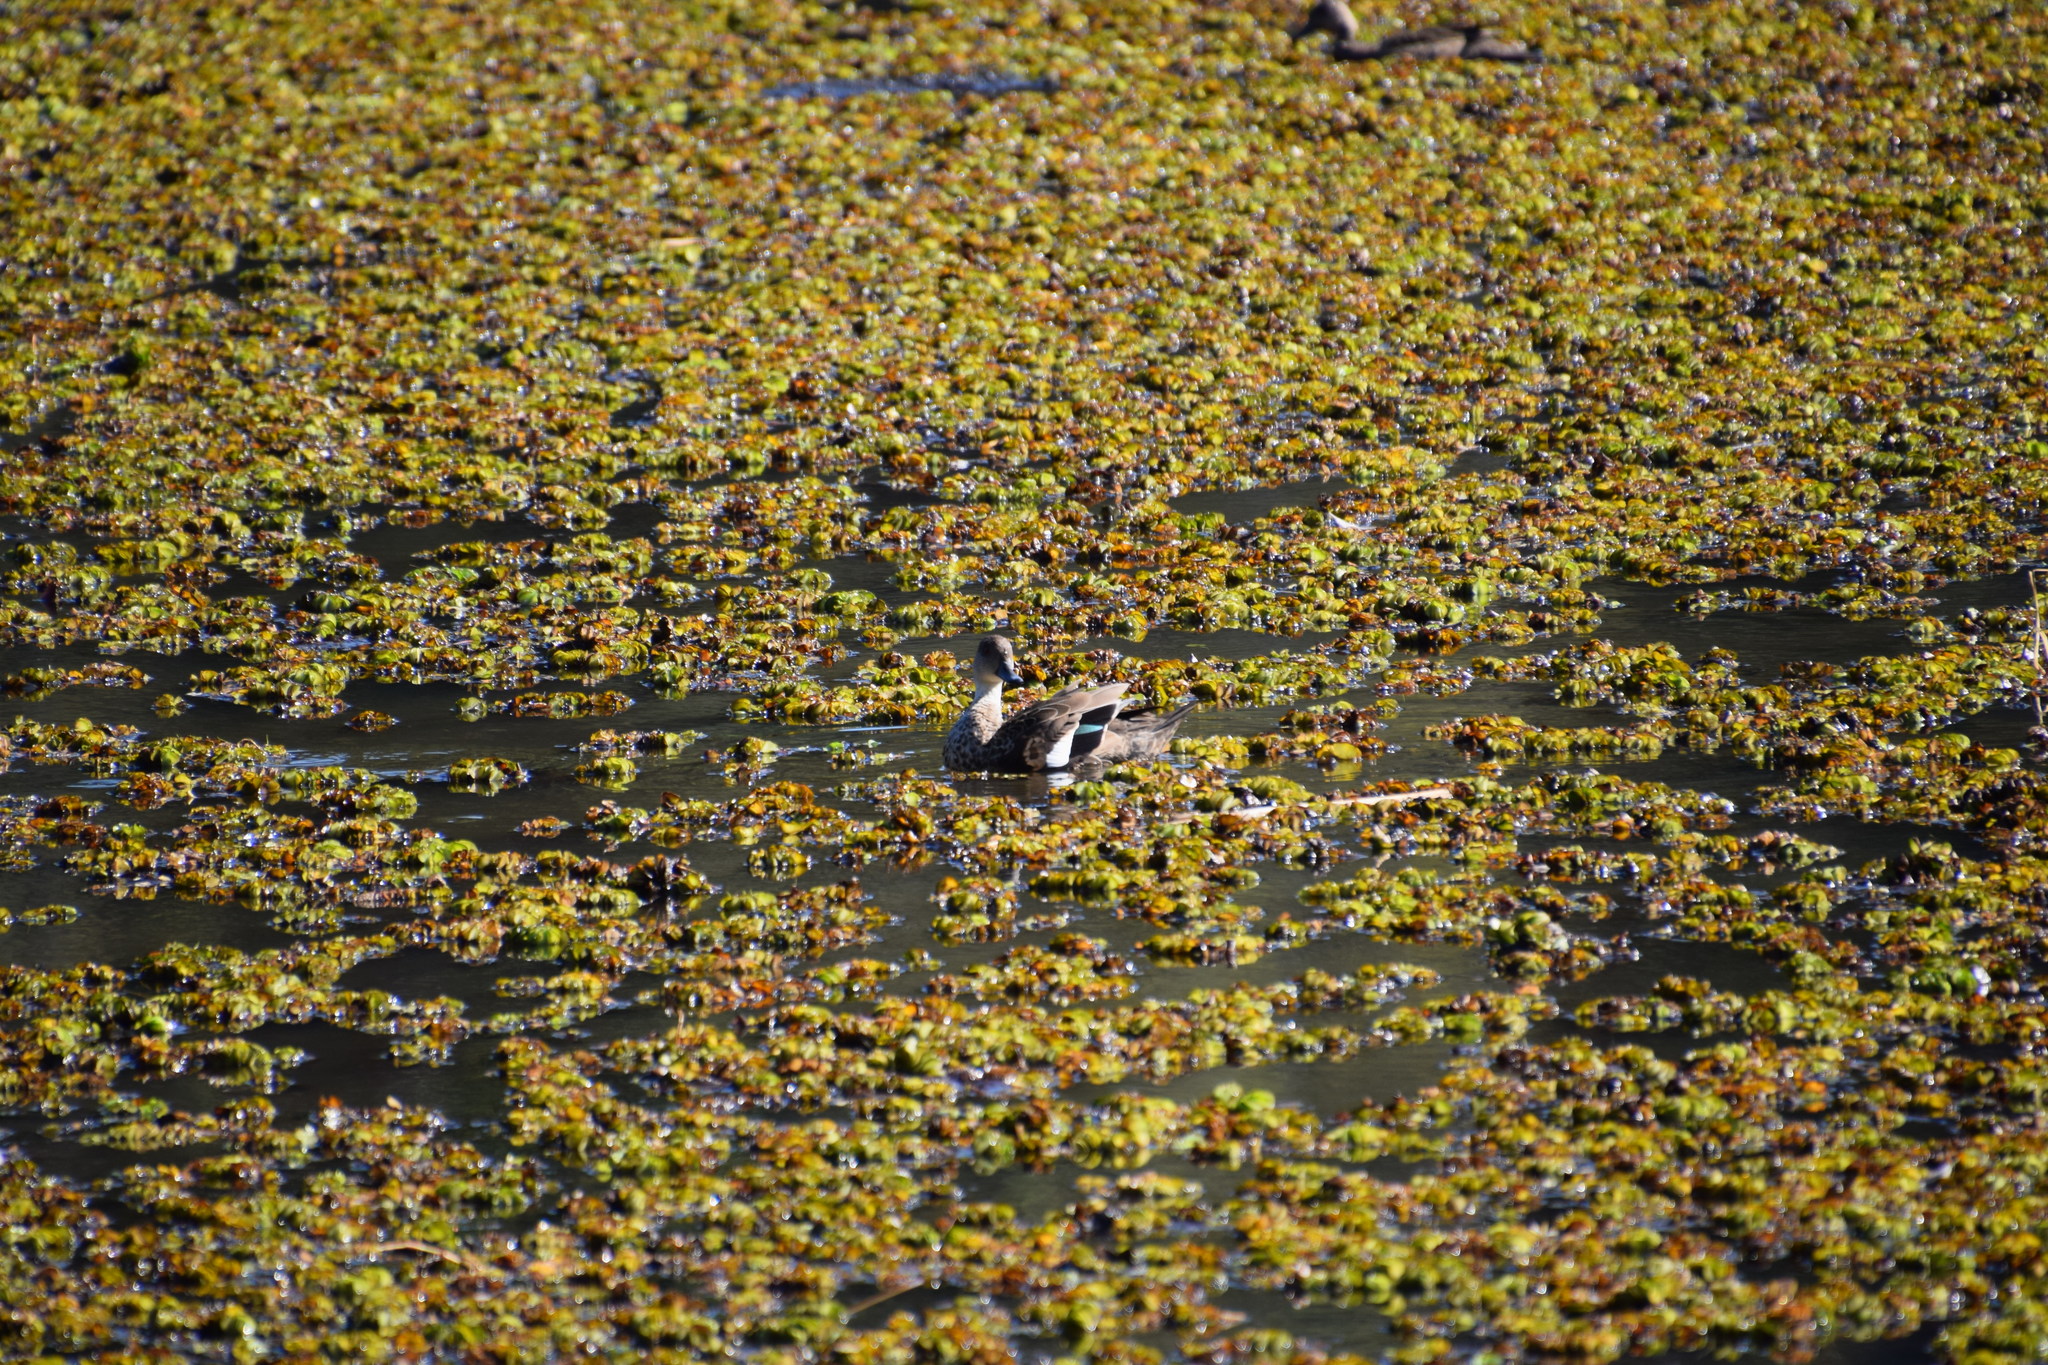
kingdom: Animalia
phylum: Chordata
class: Aves
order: Anseriformes
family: Anatidae
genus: Anas
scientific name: Anas castanea
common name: Chestnut teal
